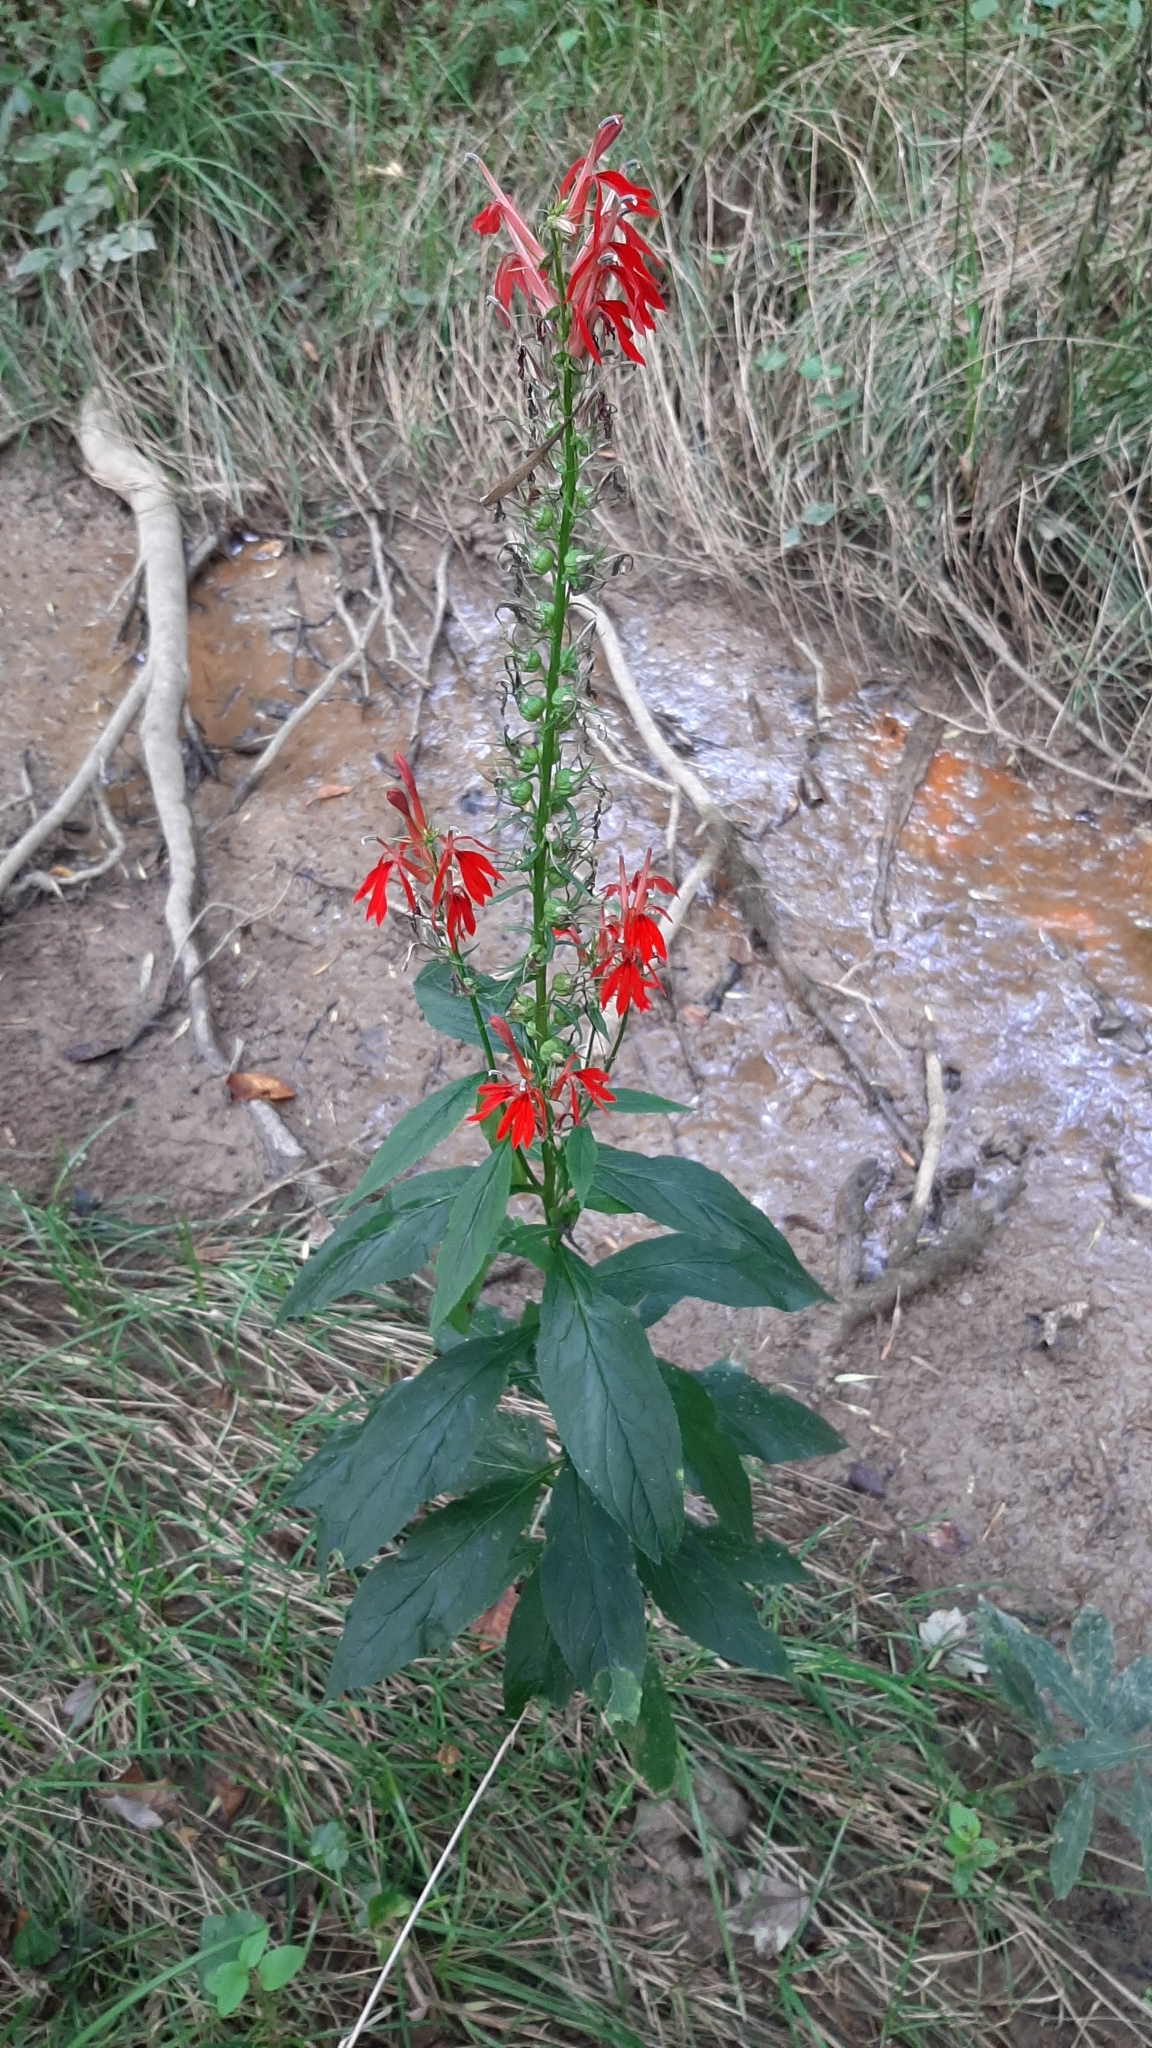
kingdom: Plantae
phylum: Tracheophyta
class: Magnoliopsida
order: Asterales
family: Campanulaceae
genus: Lobelia
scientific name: Lobelia cardinalis
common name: Cardinal flower
